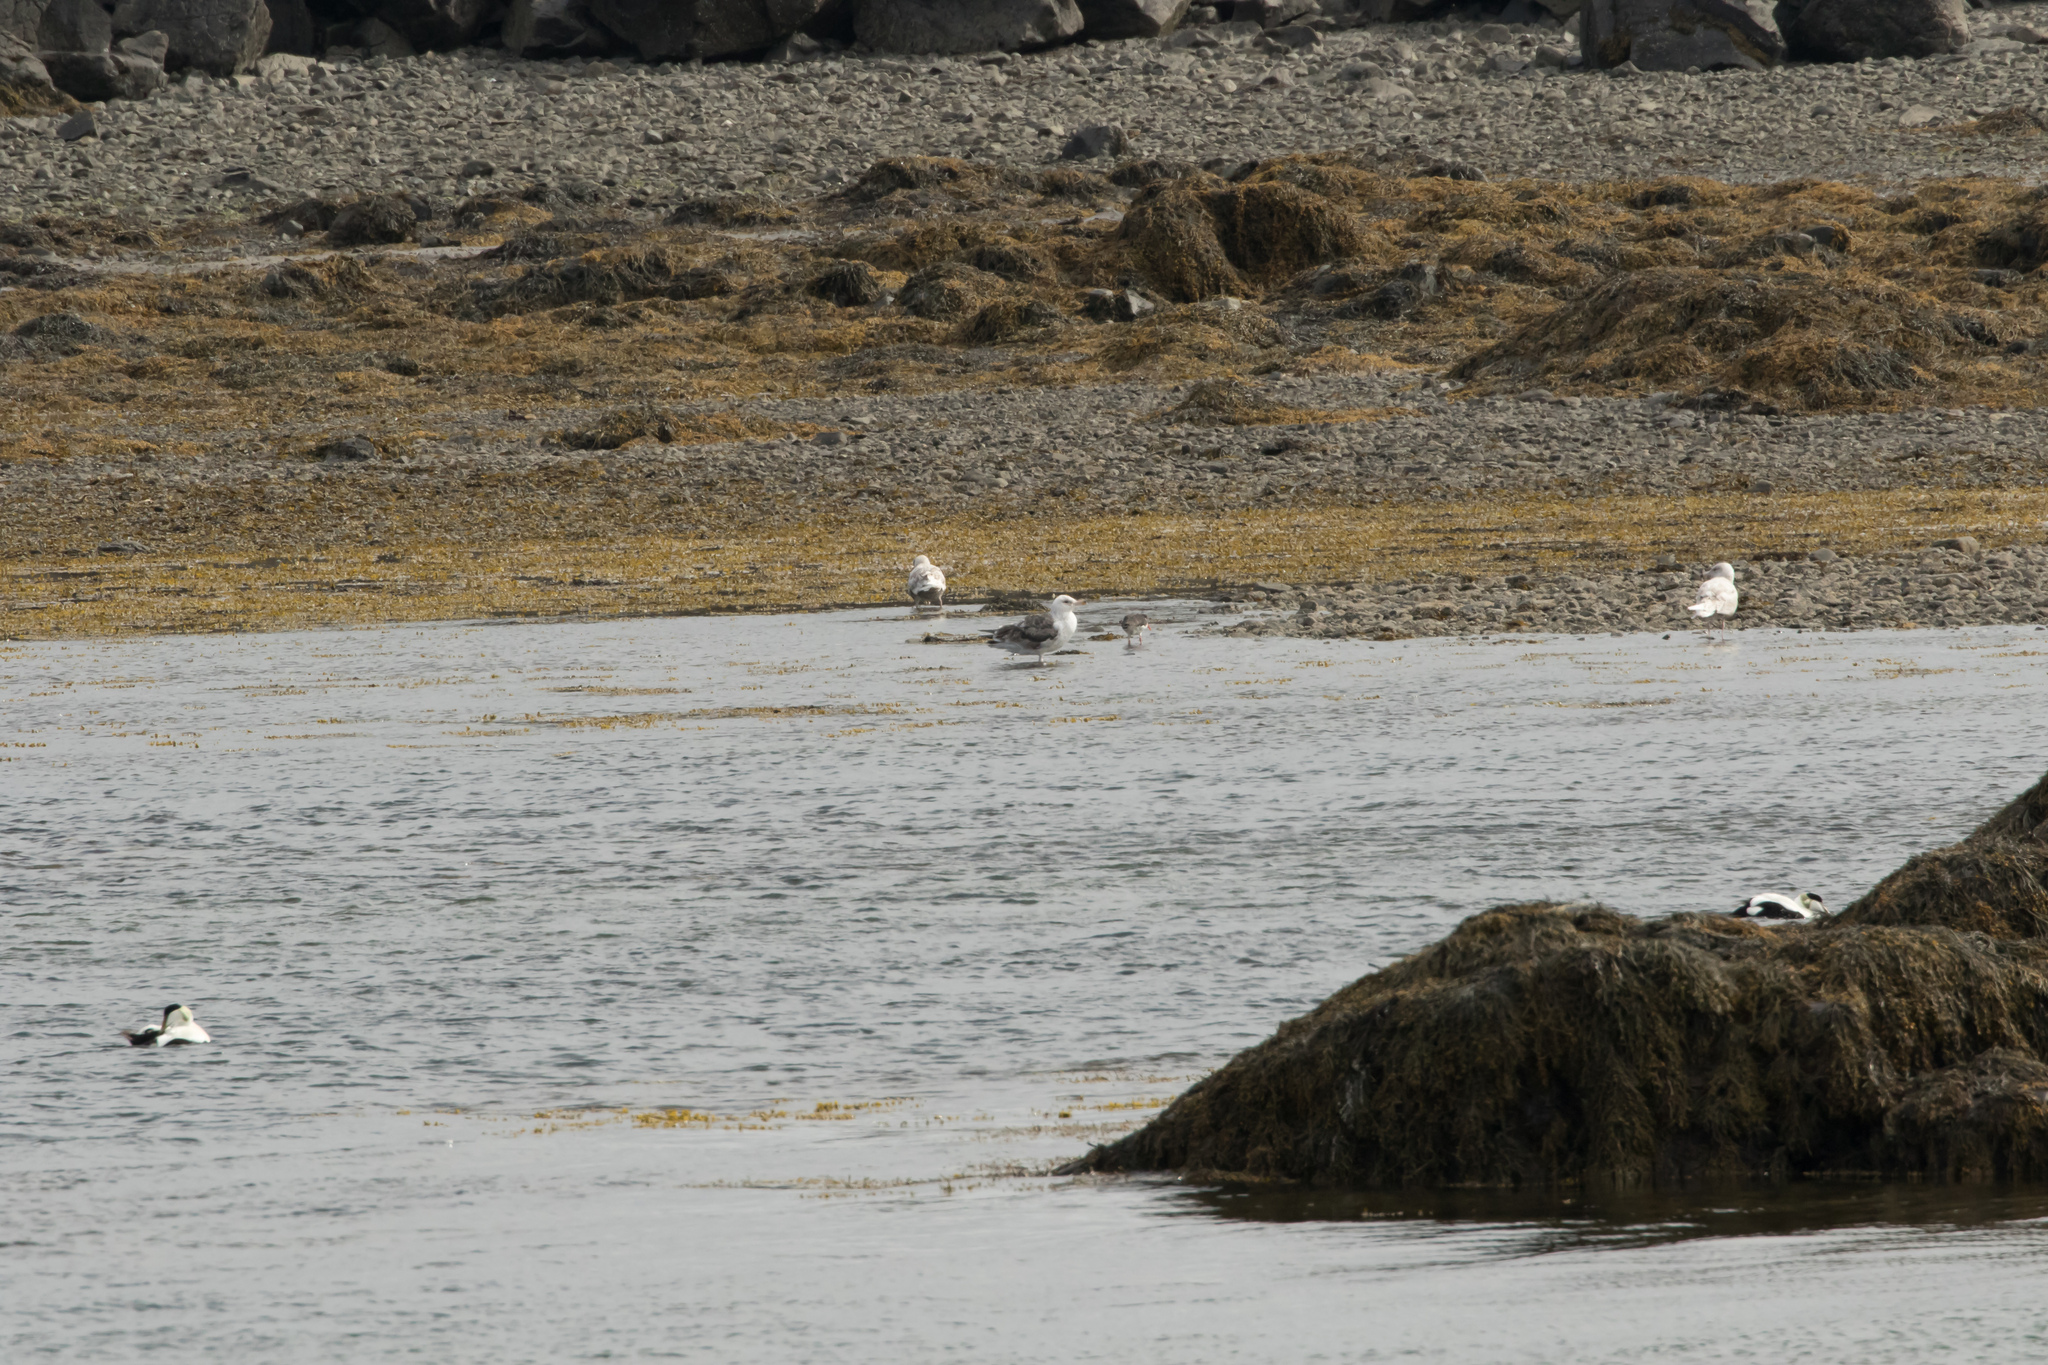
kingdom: Animalia
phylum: Chordata
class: Aves
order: Charadriiformes
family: Scolopacidae
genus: Tringa
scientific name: Tringa totanus
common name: Common redshank
